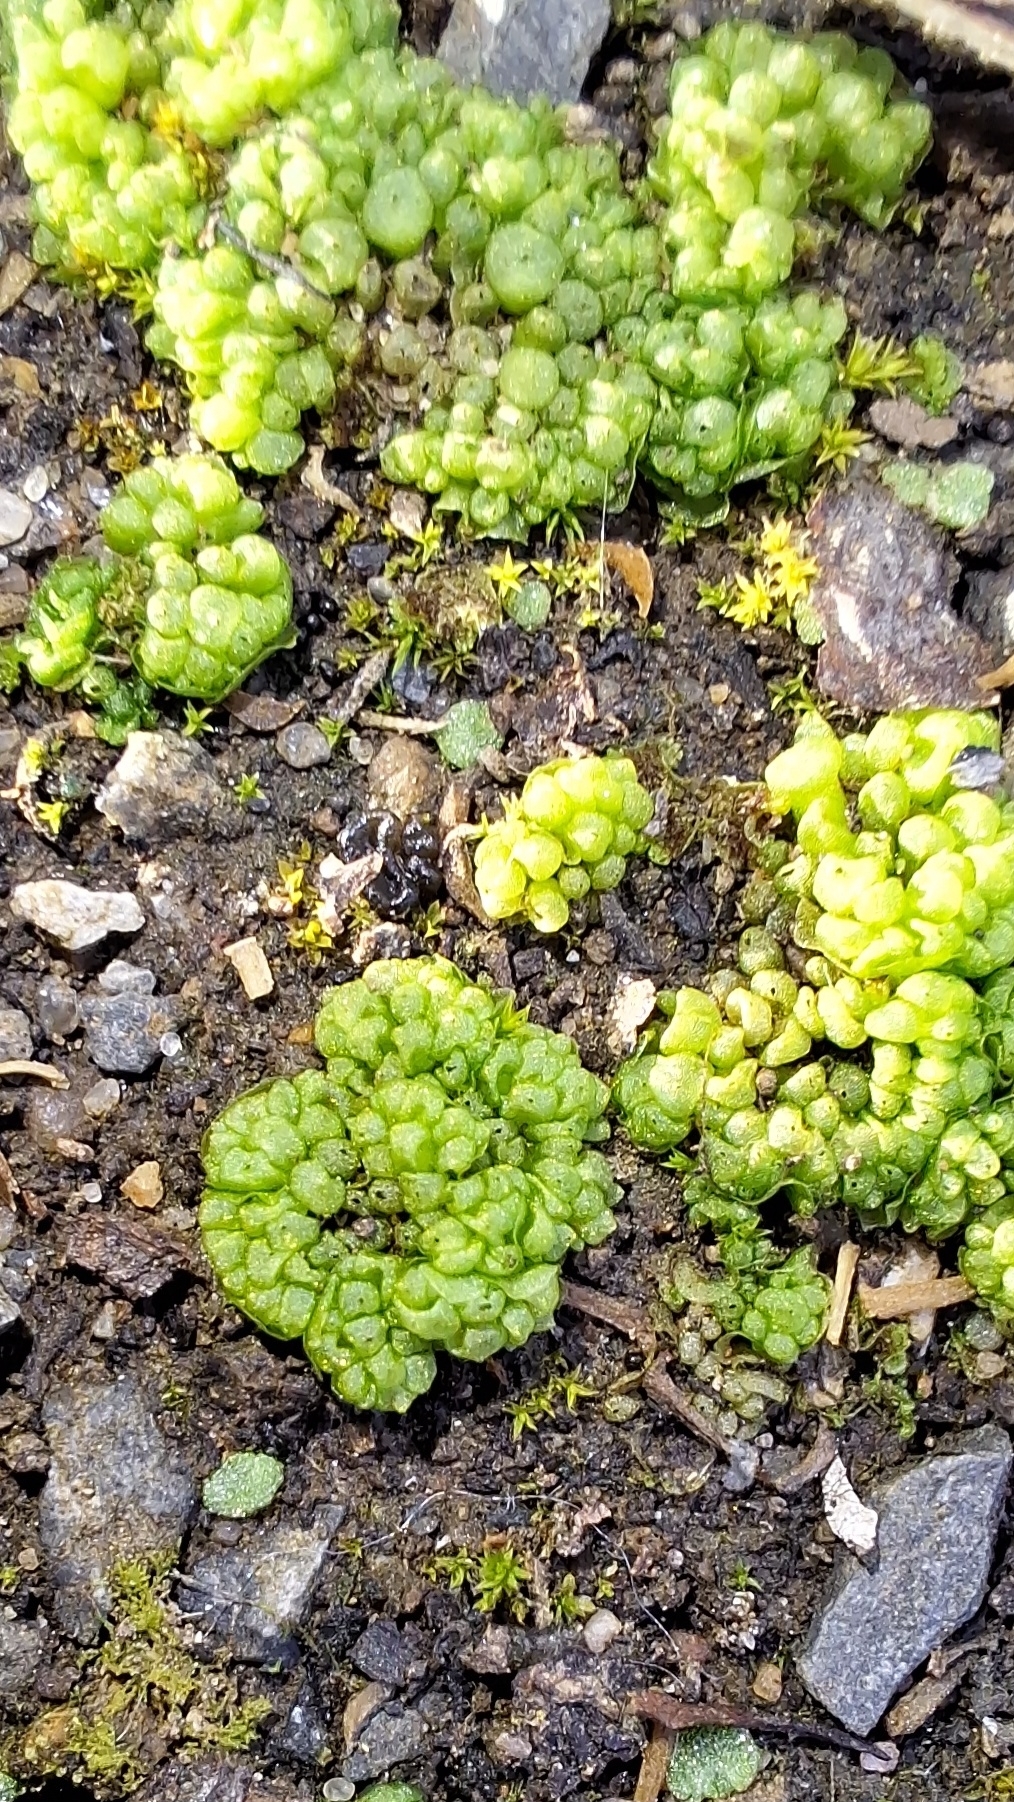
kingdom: Plantae
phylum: Marchantiophyta
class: Marchantiopsida
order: Sphaerocarpales
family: Sphaerocarpaceae
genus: Sphaerocarpos
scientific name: Sphaerocarpos texanus
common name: Texas balloonwort
